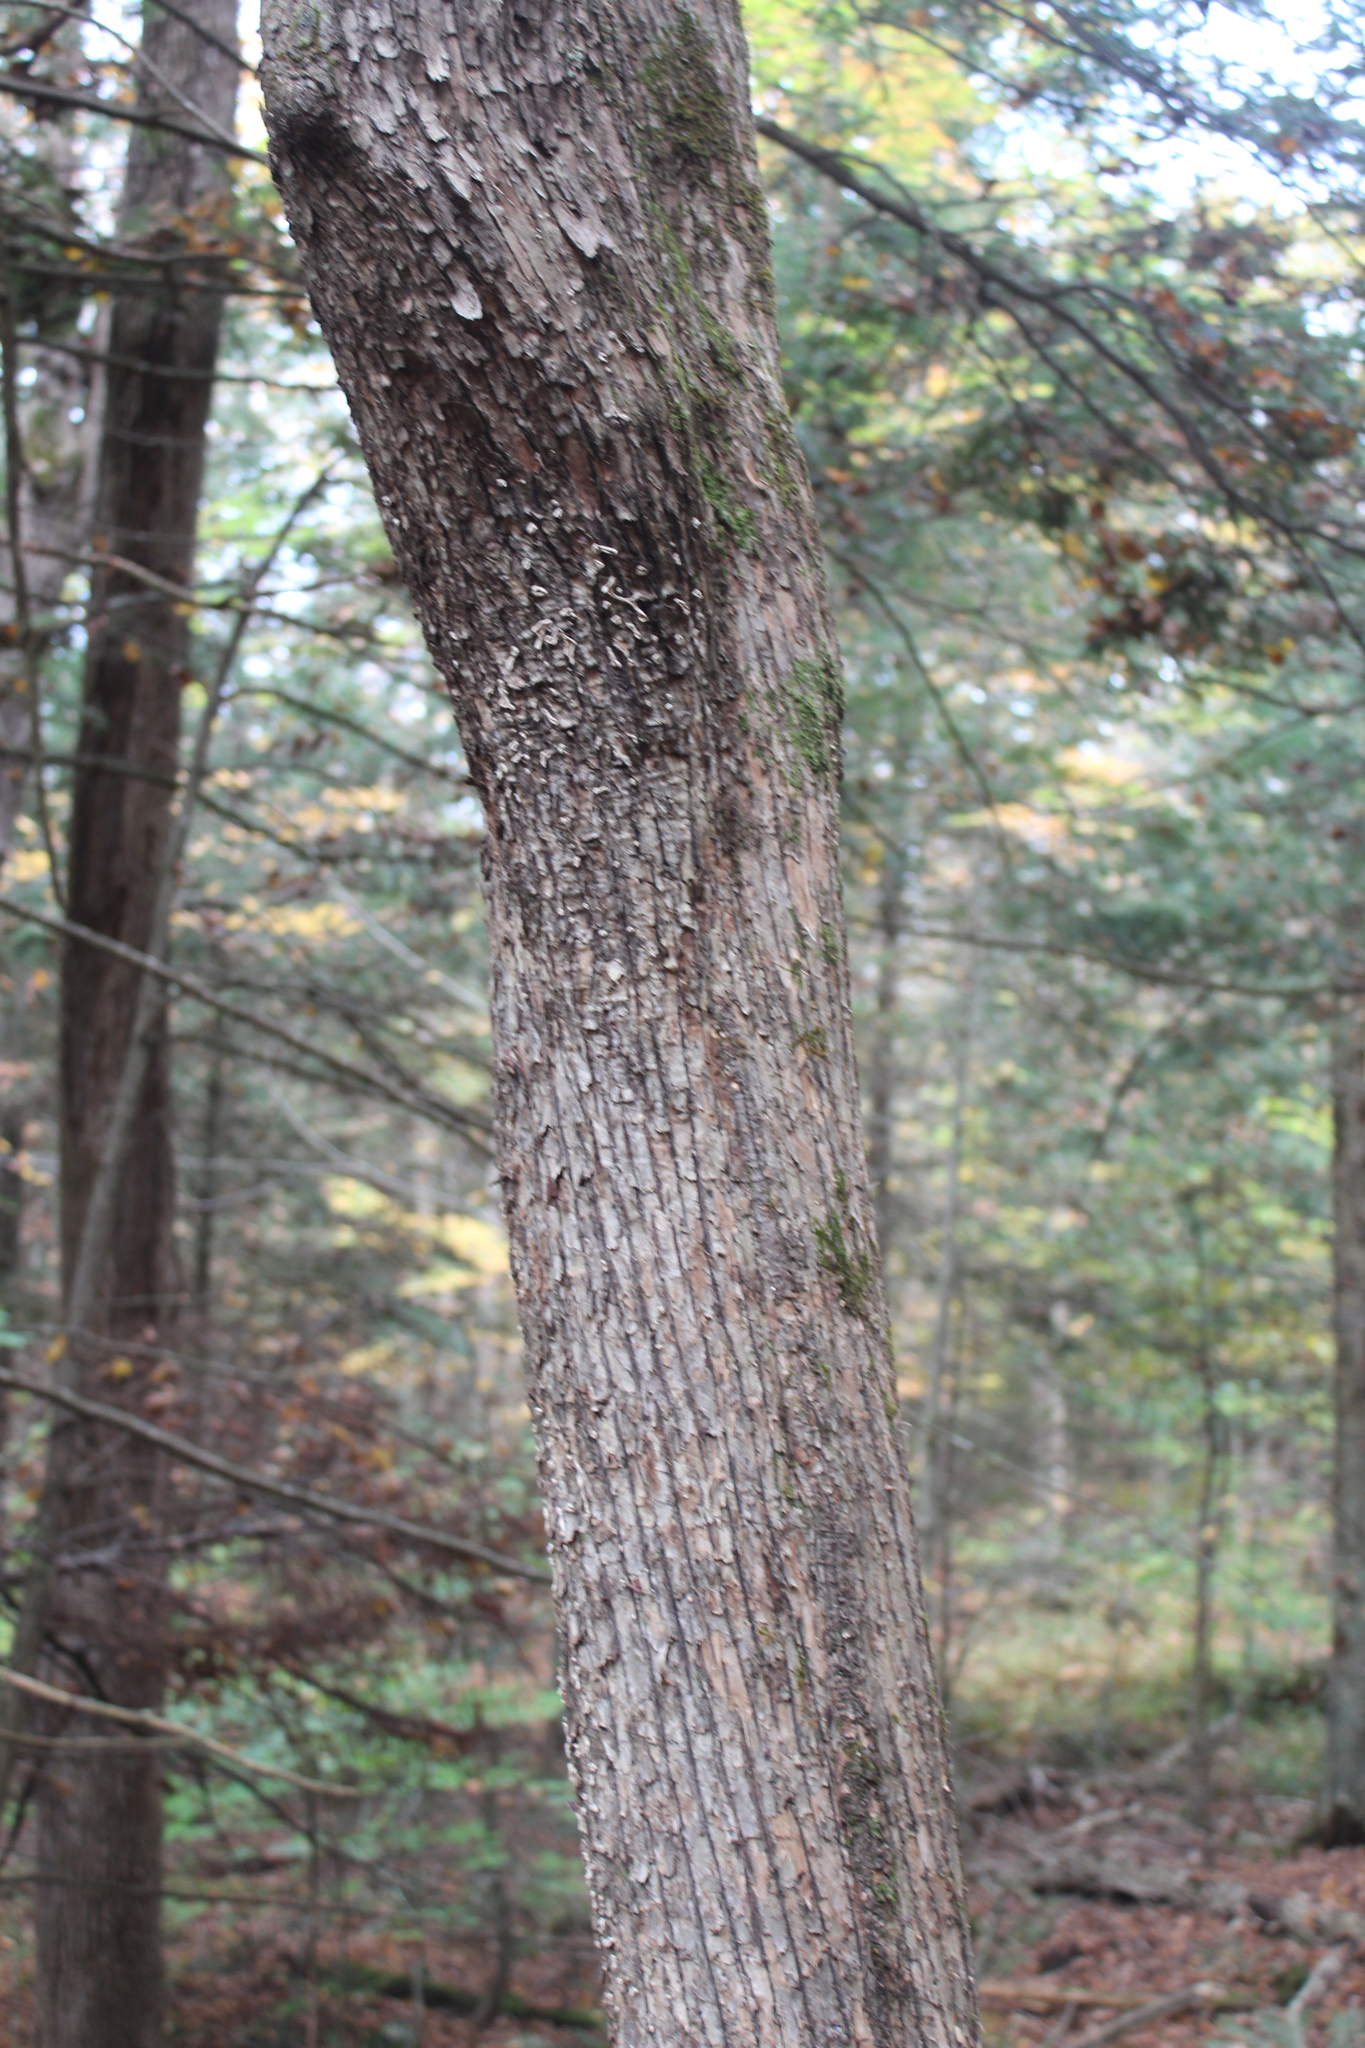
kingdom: Plantae
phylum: Tracheophyta
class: Magnoliopsida
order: Fagales
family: Betulaceae
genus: Ostrya
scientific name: Ostrya virginiana
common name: Ironwood
